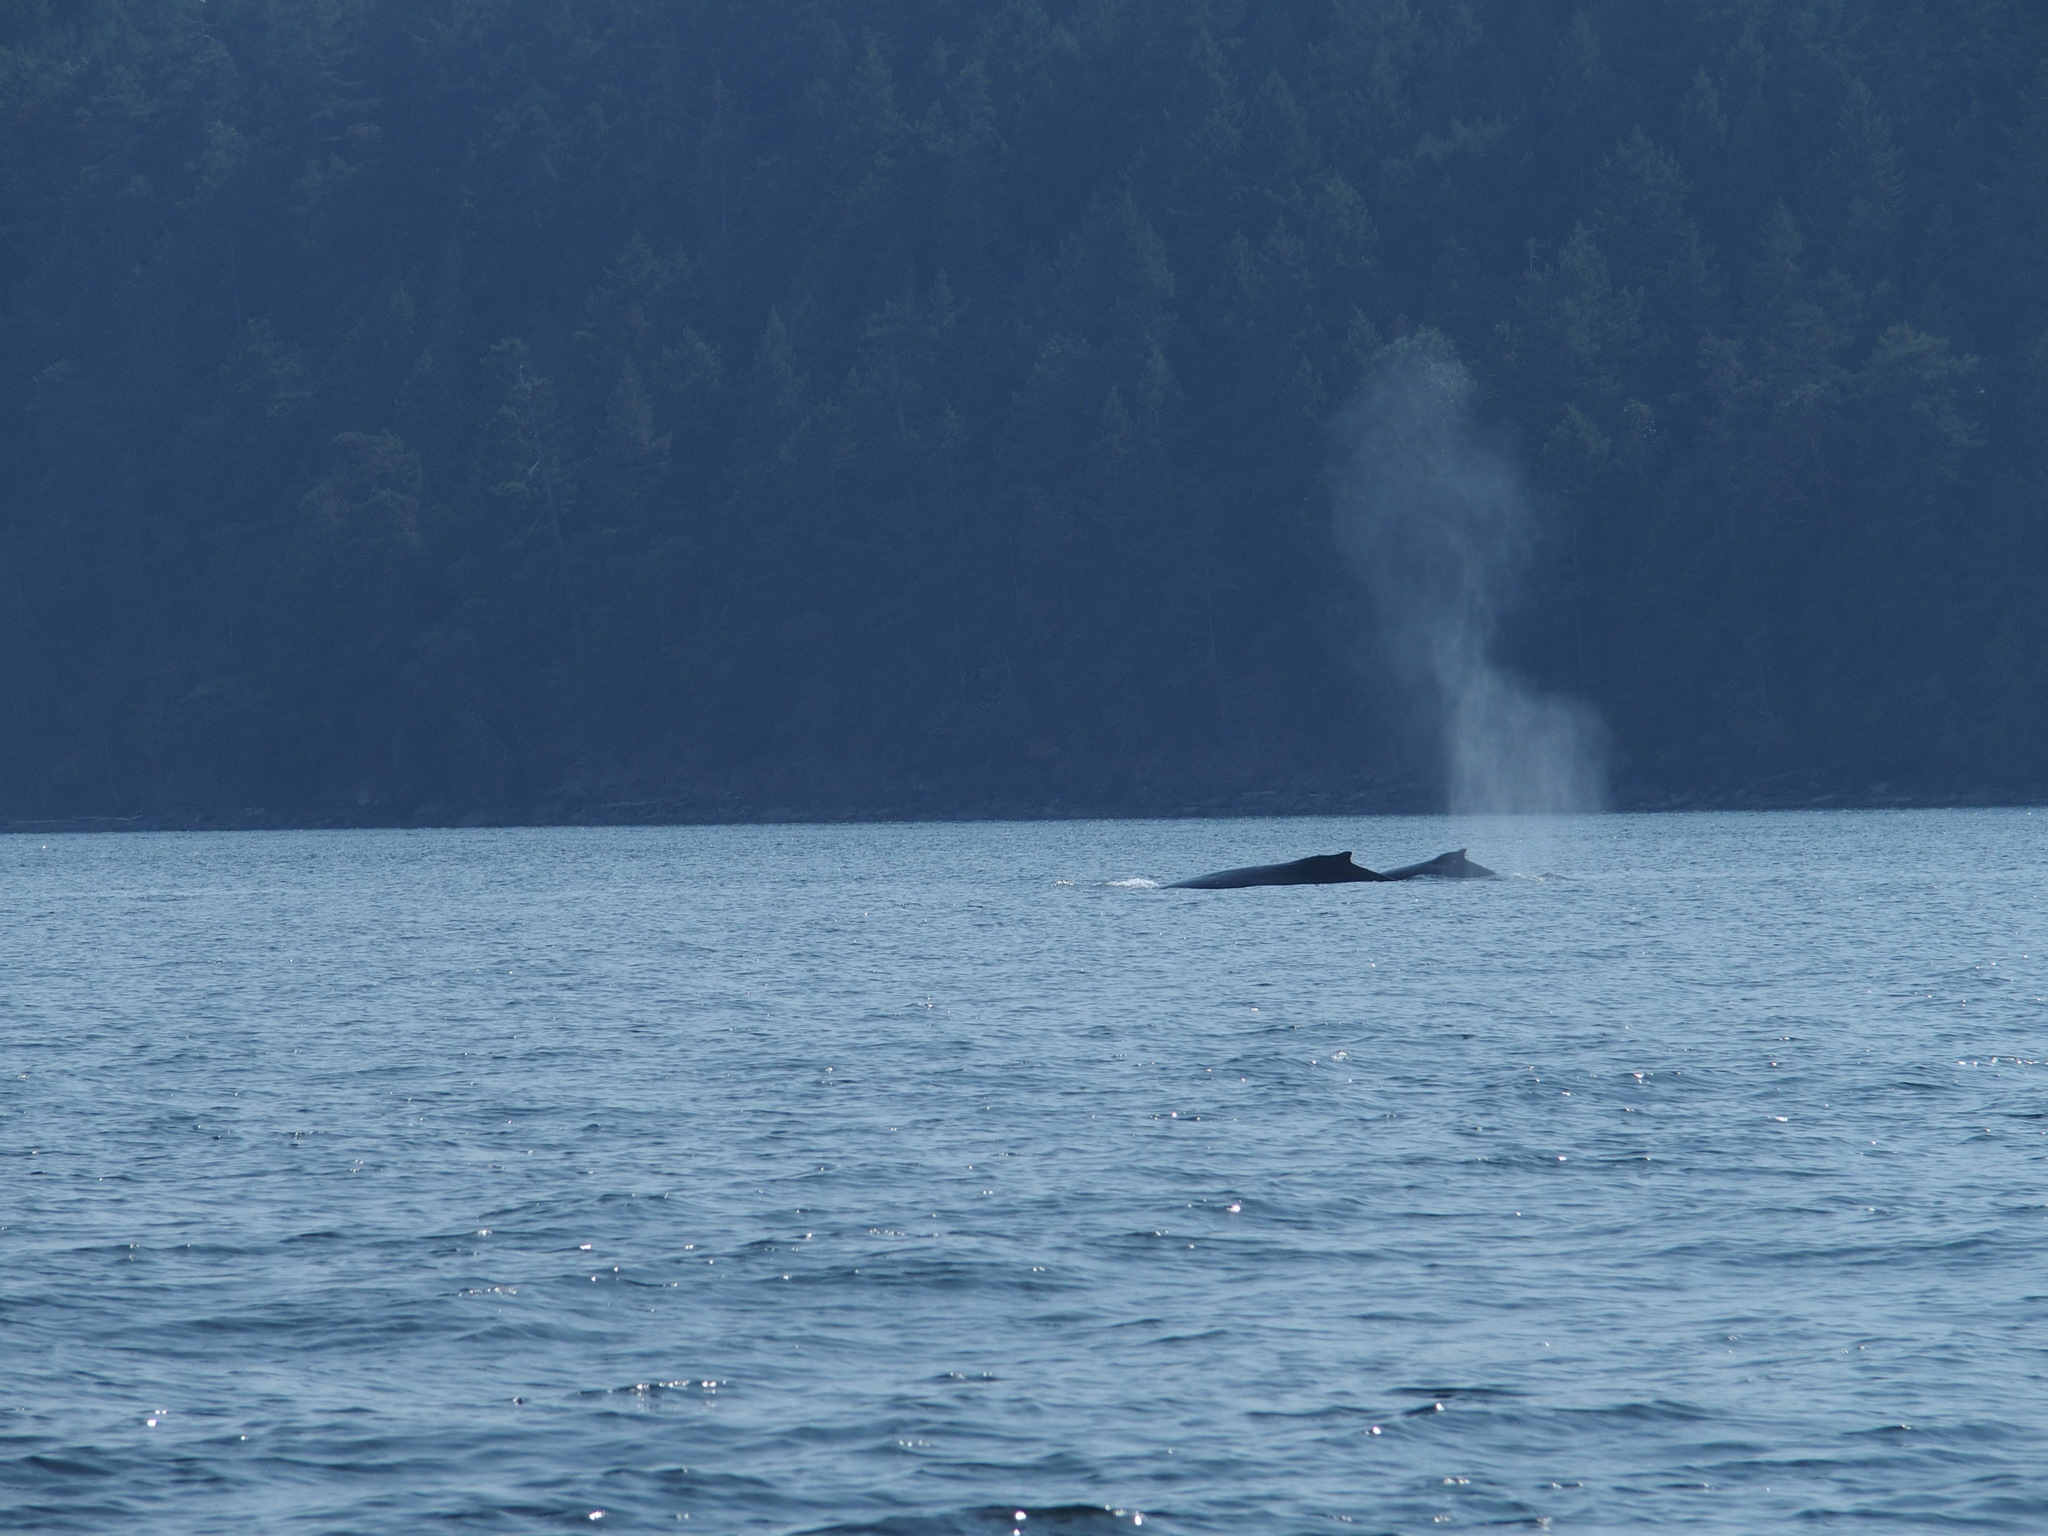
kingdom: Animalia
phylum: Chordata
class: Mammalia
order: Cetacea
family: Balaenopteridae
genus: Megaptera
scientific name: Megaptera novaeangliae
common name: Humpback whale
